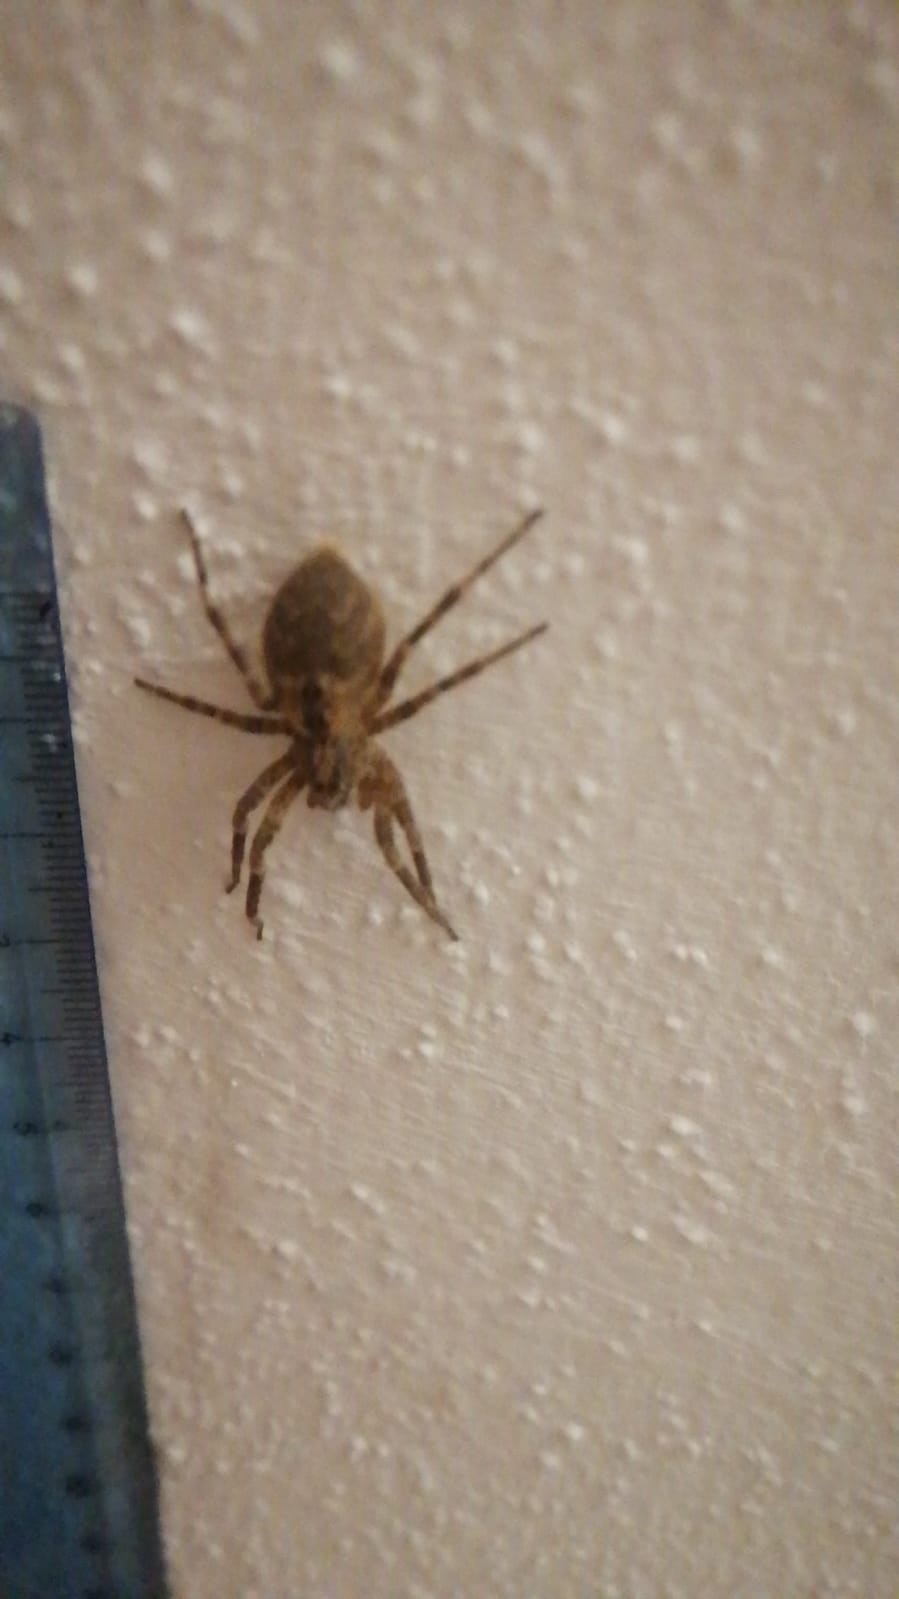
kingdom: Animalia
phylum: Arthropoda
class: Arachnida
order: Araneae
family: Zoropsidae
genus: Zoropsis
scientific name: Zoropsis spinimana
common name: Zoropsid spider
